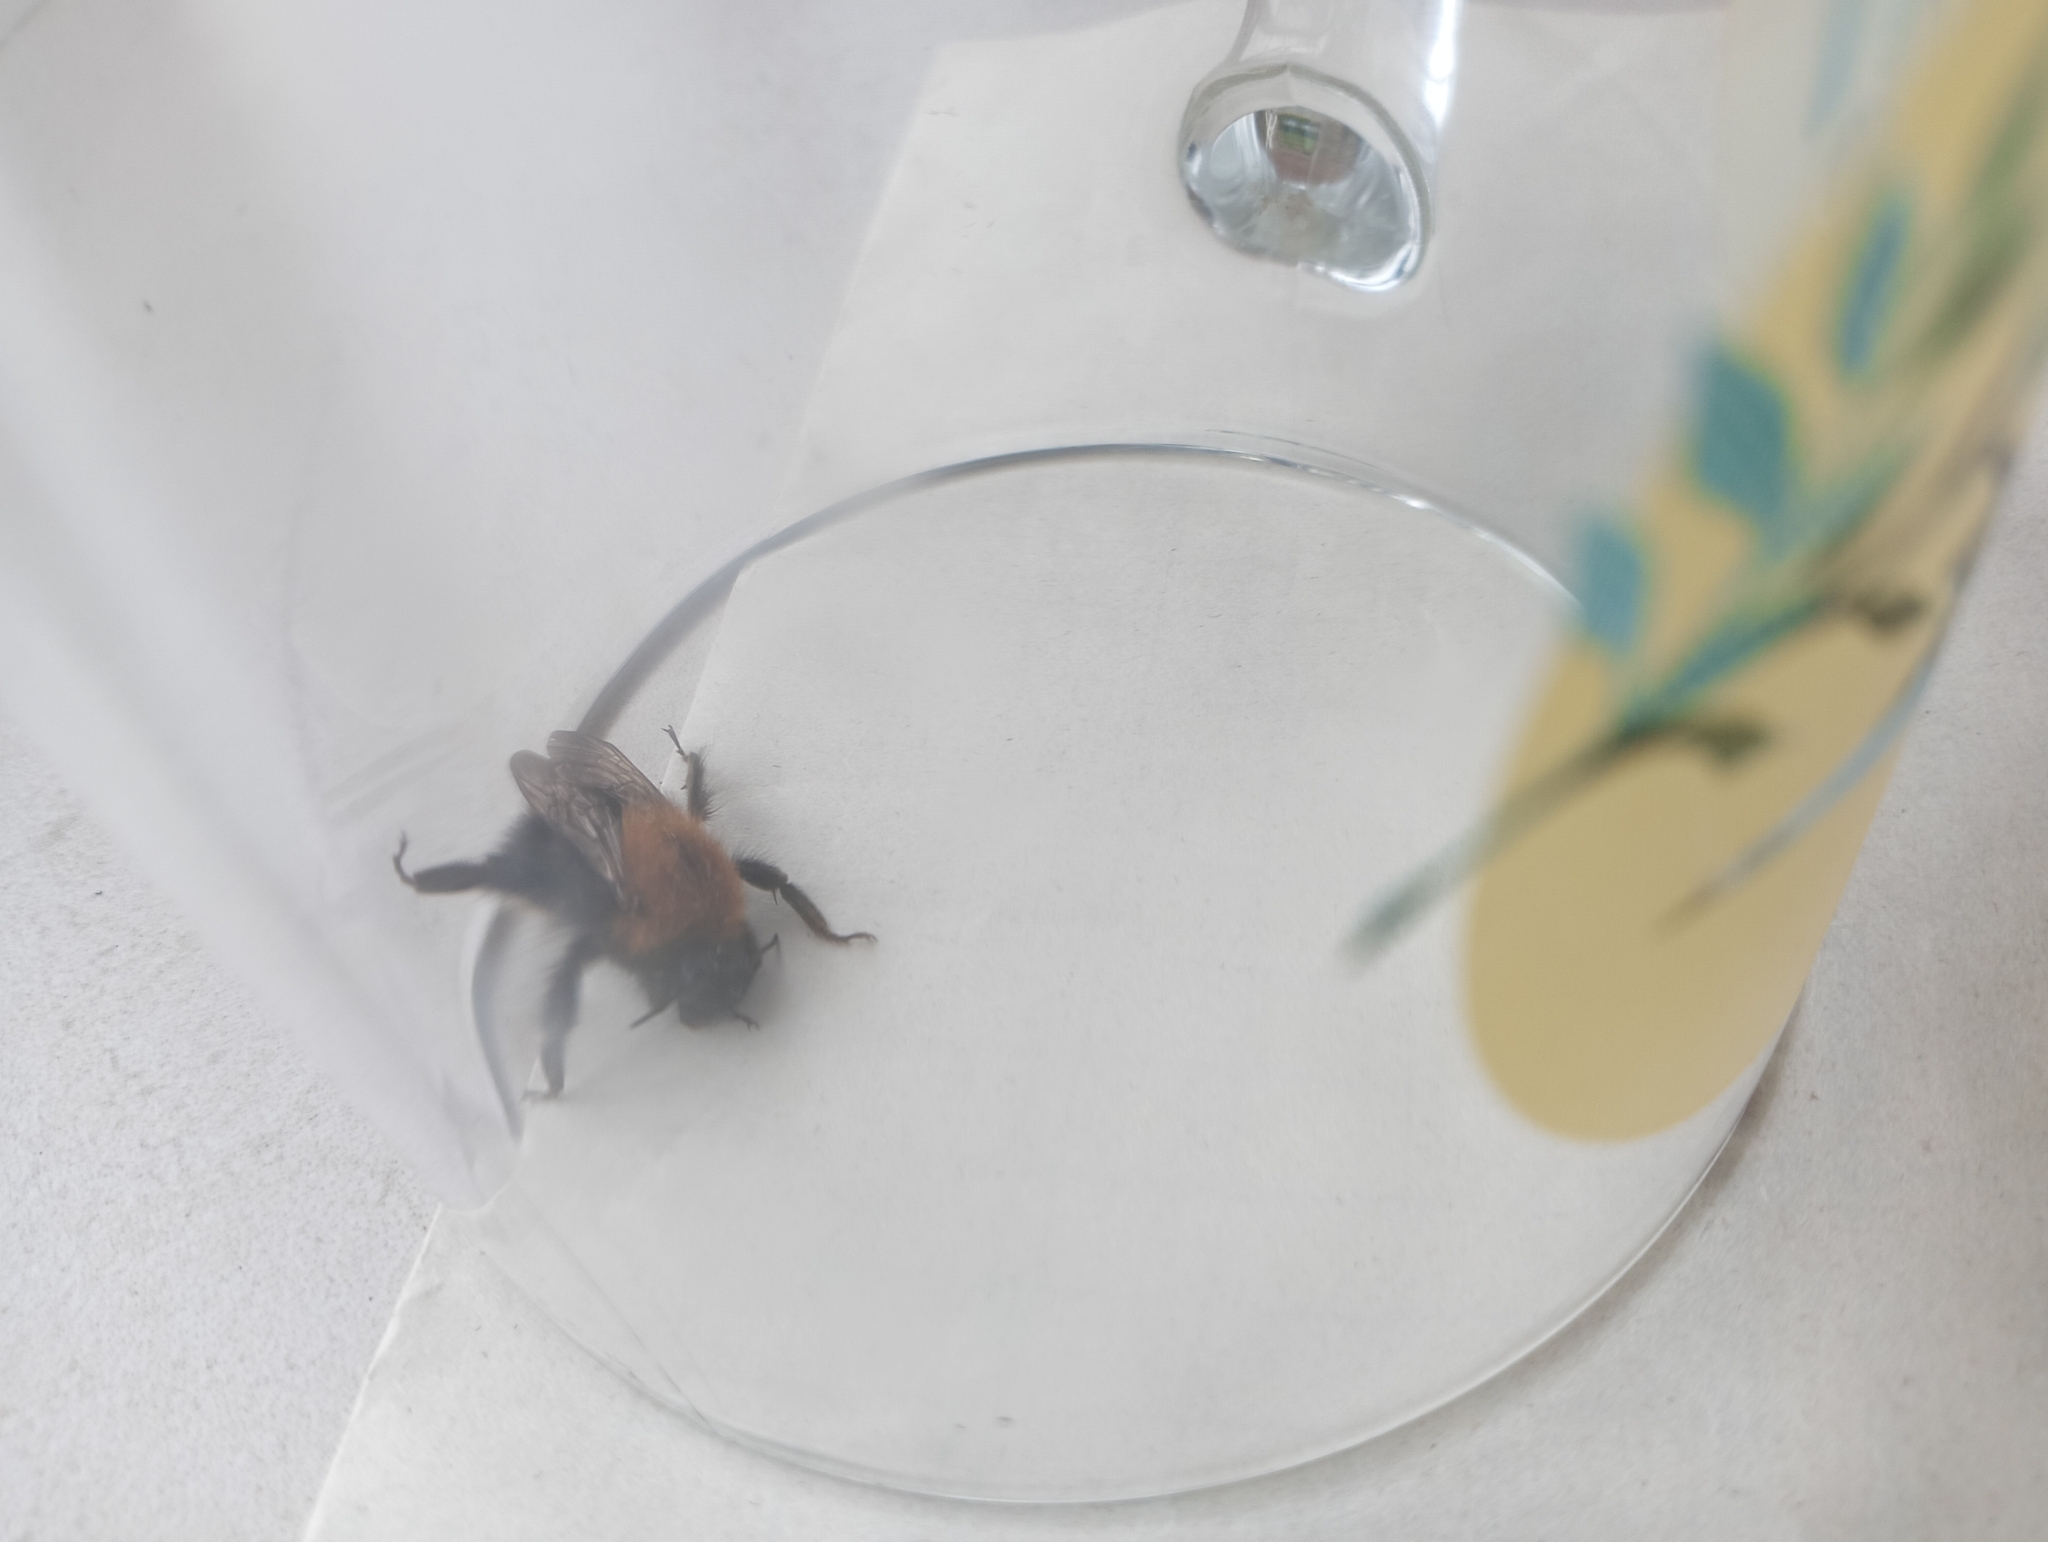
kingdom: Animalia
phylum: Arthropoda
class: Insecta
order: Hymenoptera
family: Apidae
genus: Bombus
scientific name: Bombus hypnorum
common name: New garden bumblebee
